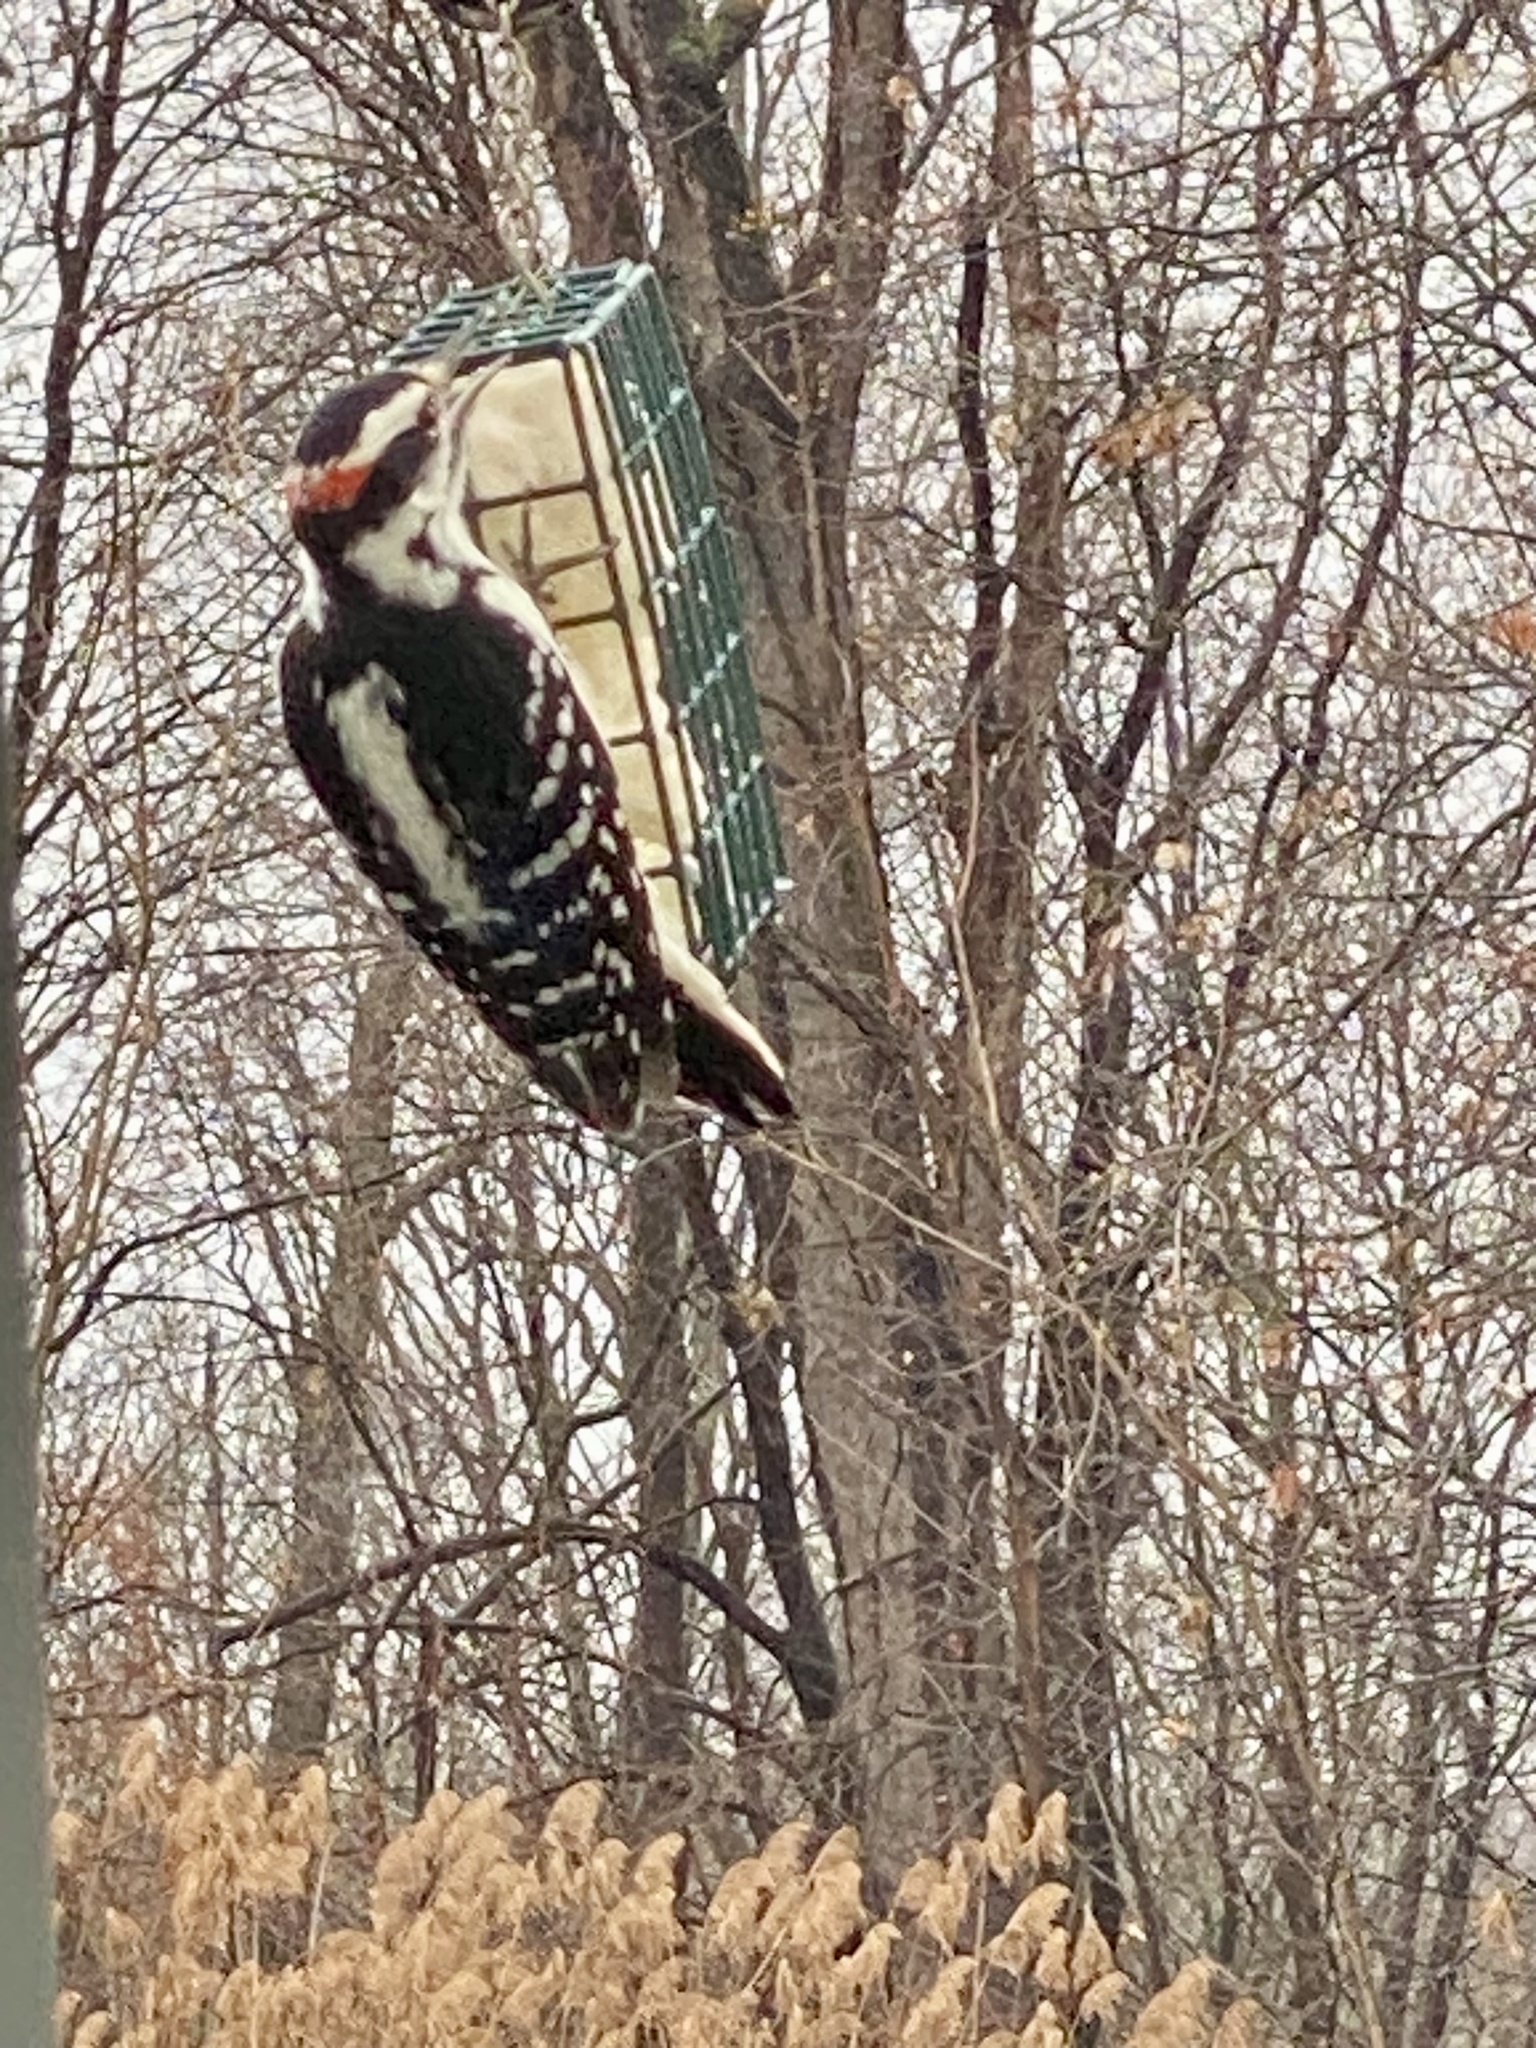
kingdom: Animalia
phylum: Chordata
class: Aves
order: Piciformes
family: Picidae
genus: Leuconotopicus
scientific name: Leuconotopicus villosus
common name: Hairy woodpecker
